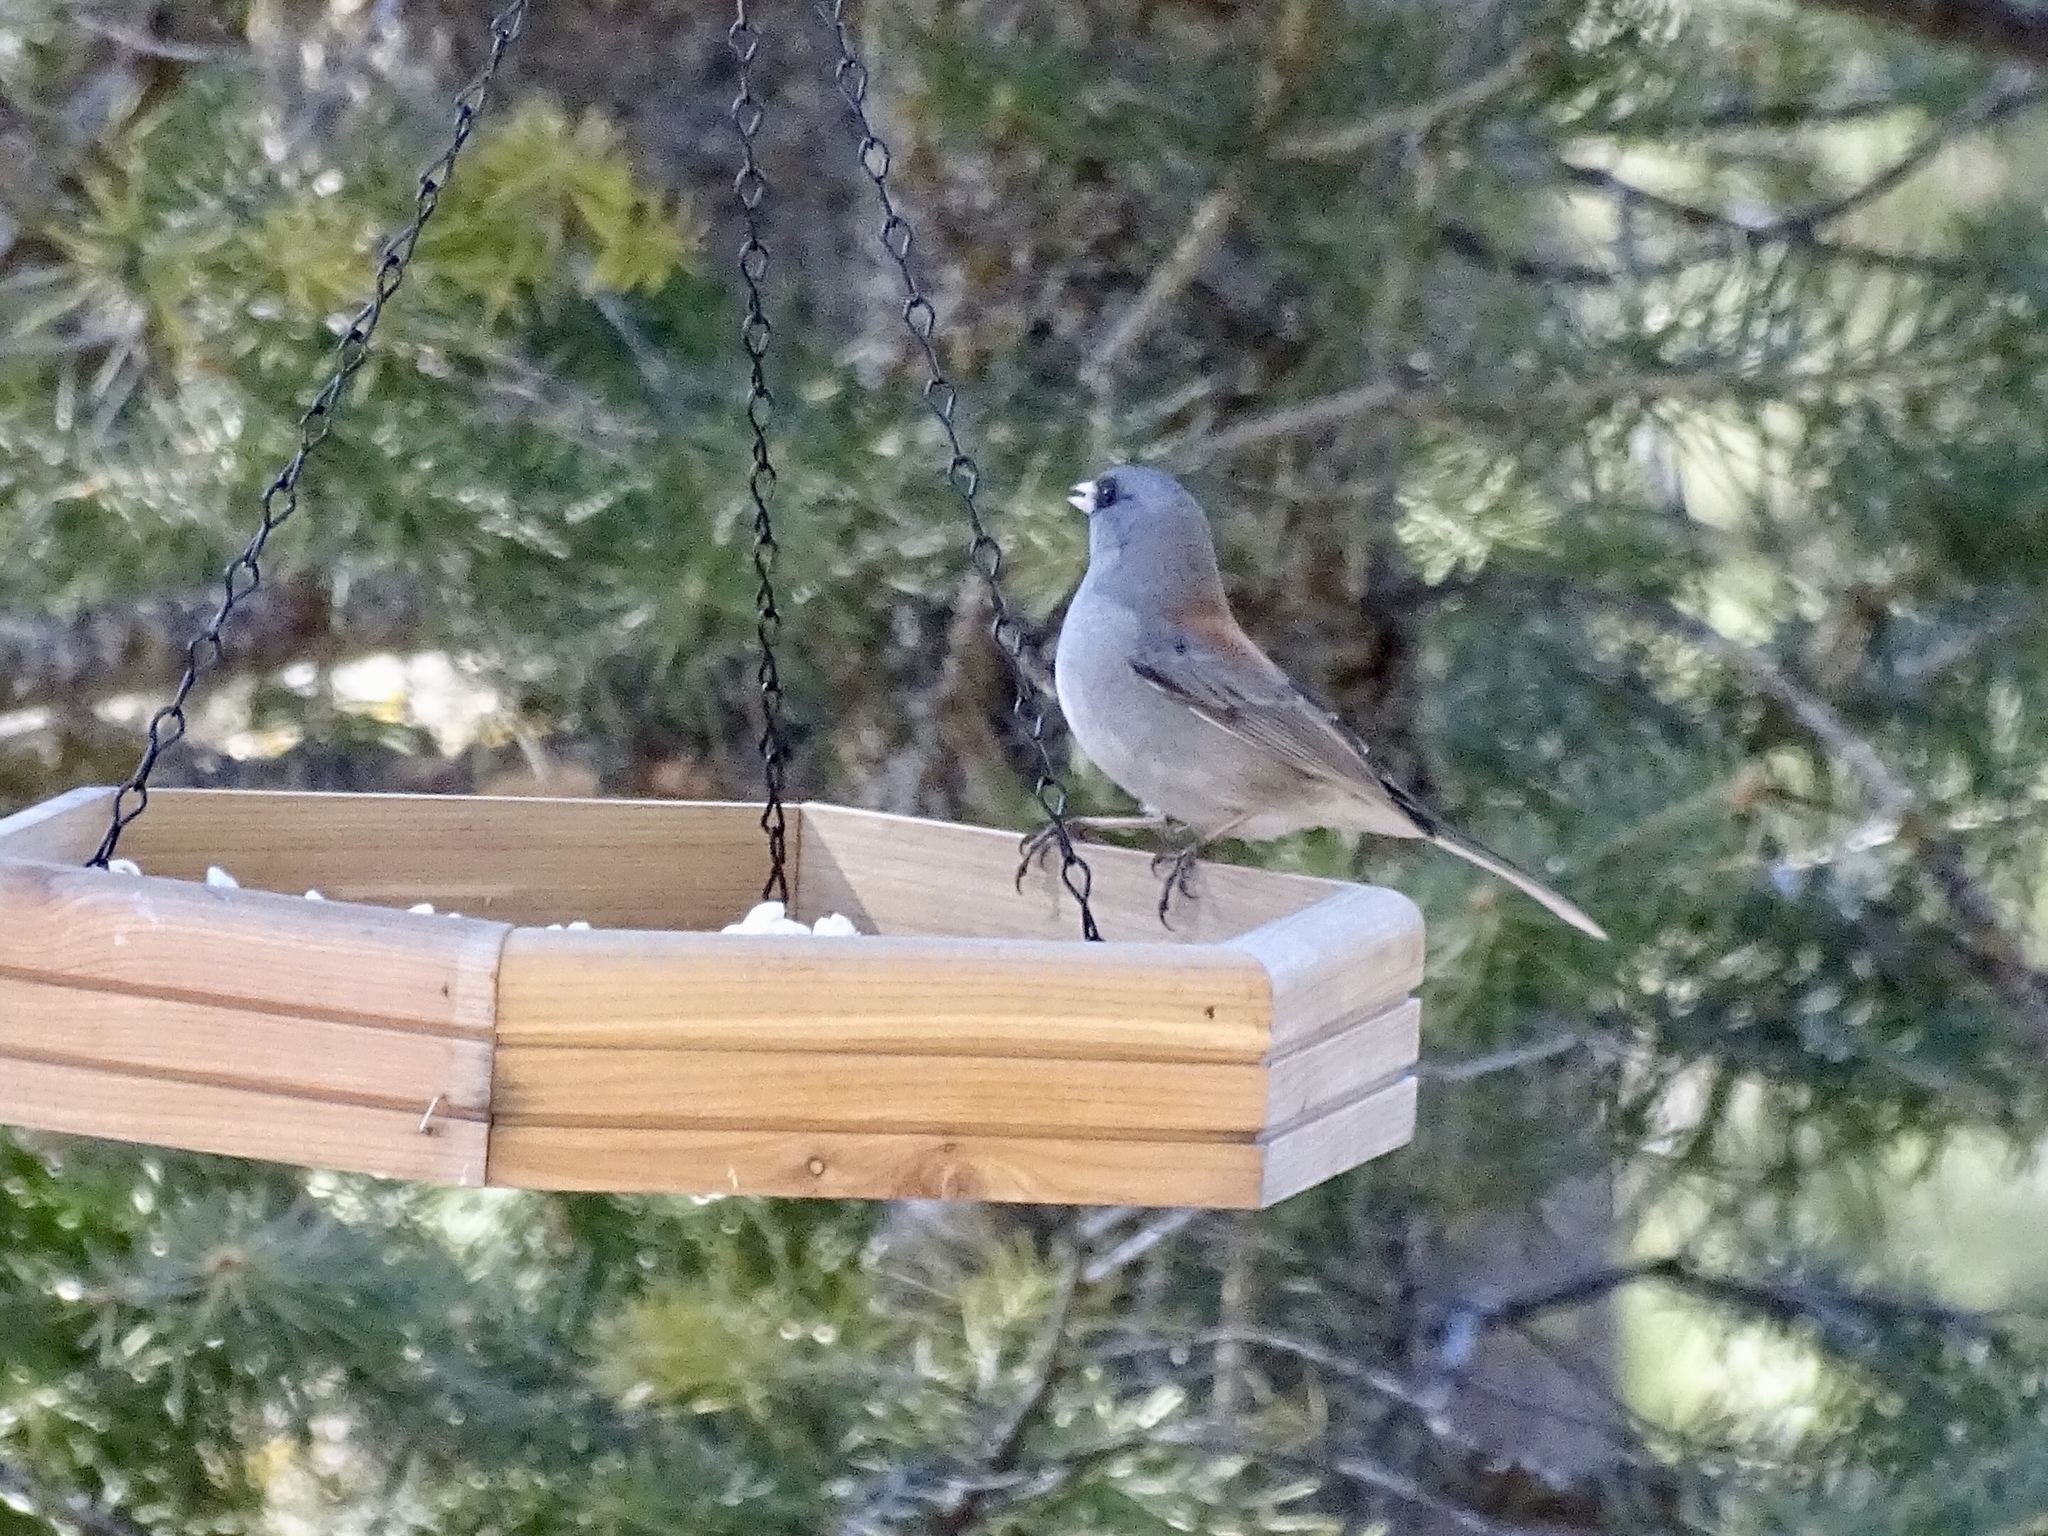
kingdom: Animalia
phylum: Chordata
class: Aves
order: Passeriformes
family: Passerellidae
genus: Junco
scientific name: Junco hyemalis
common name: Dark-eyed junco
